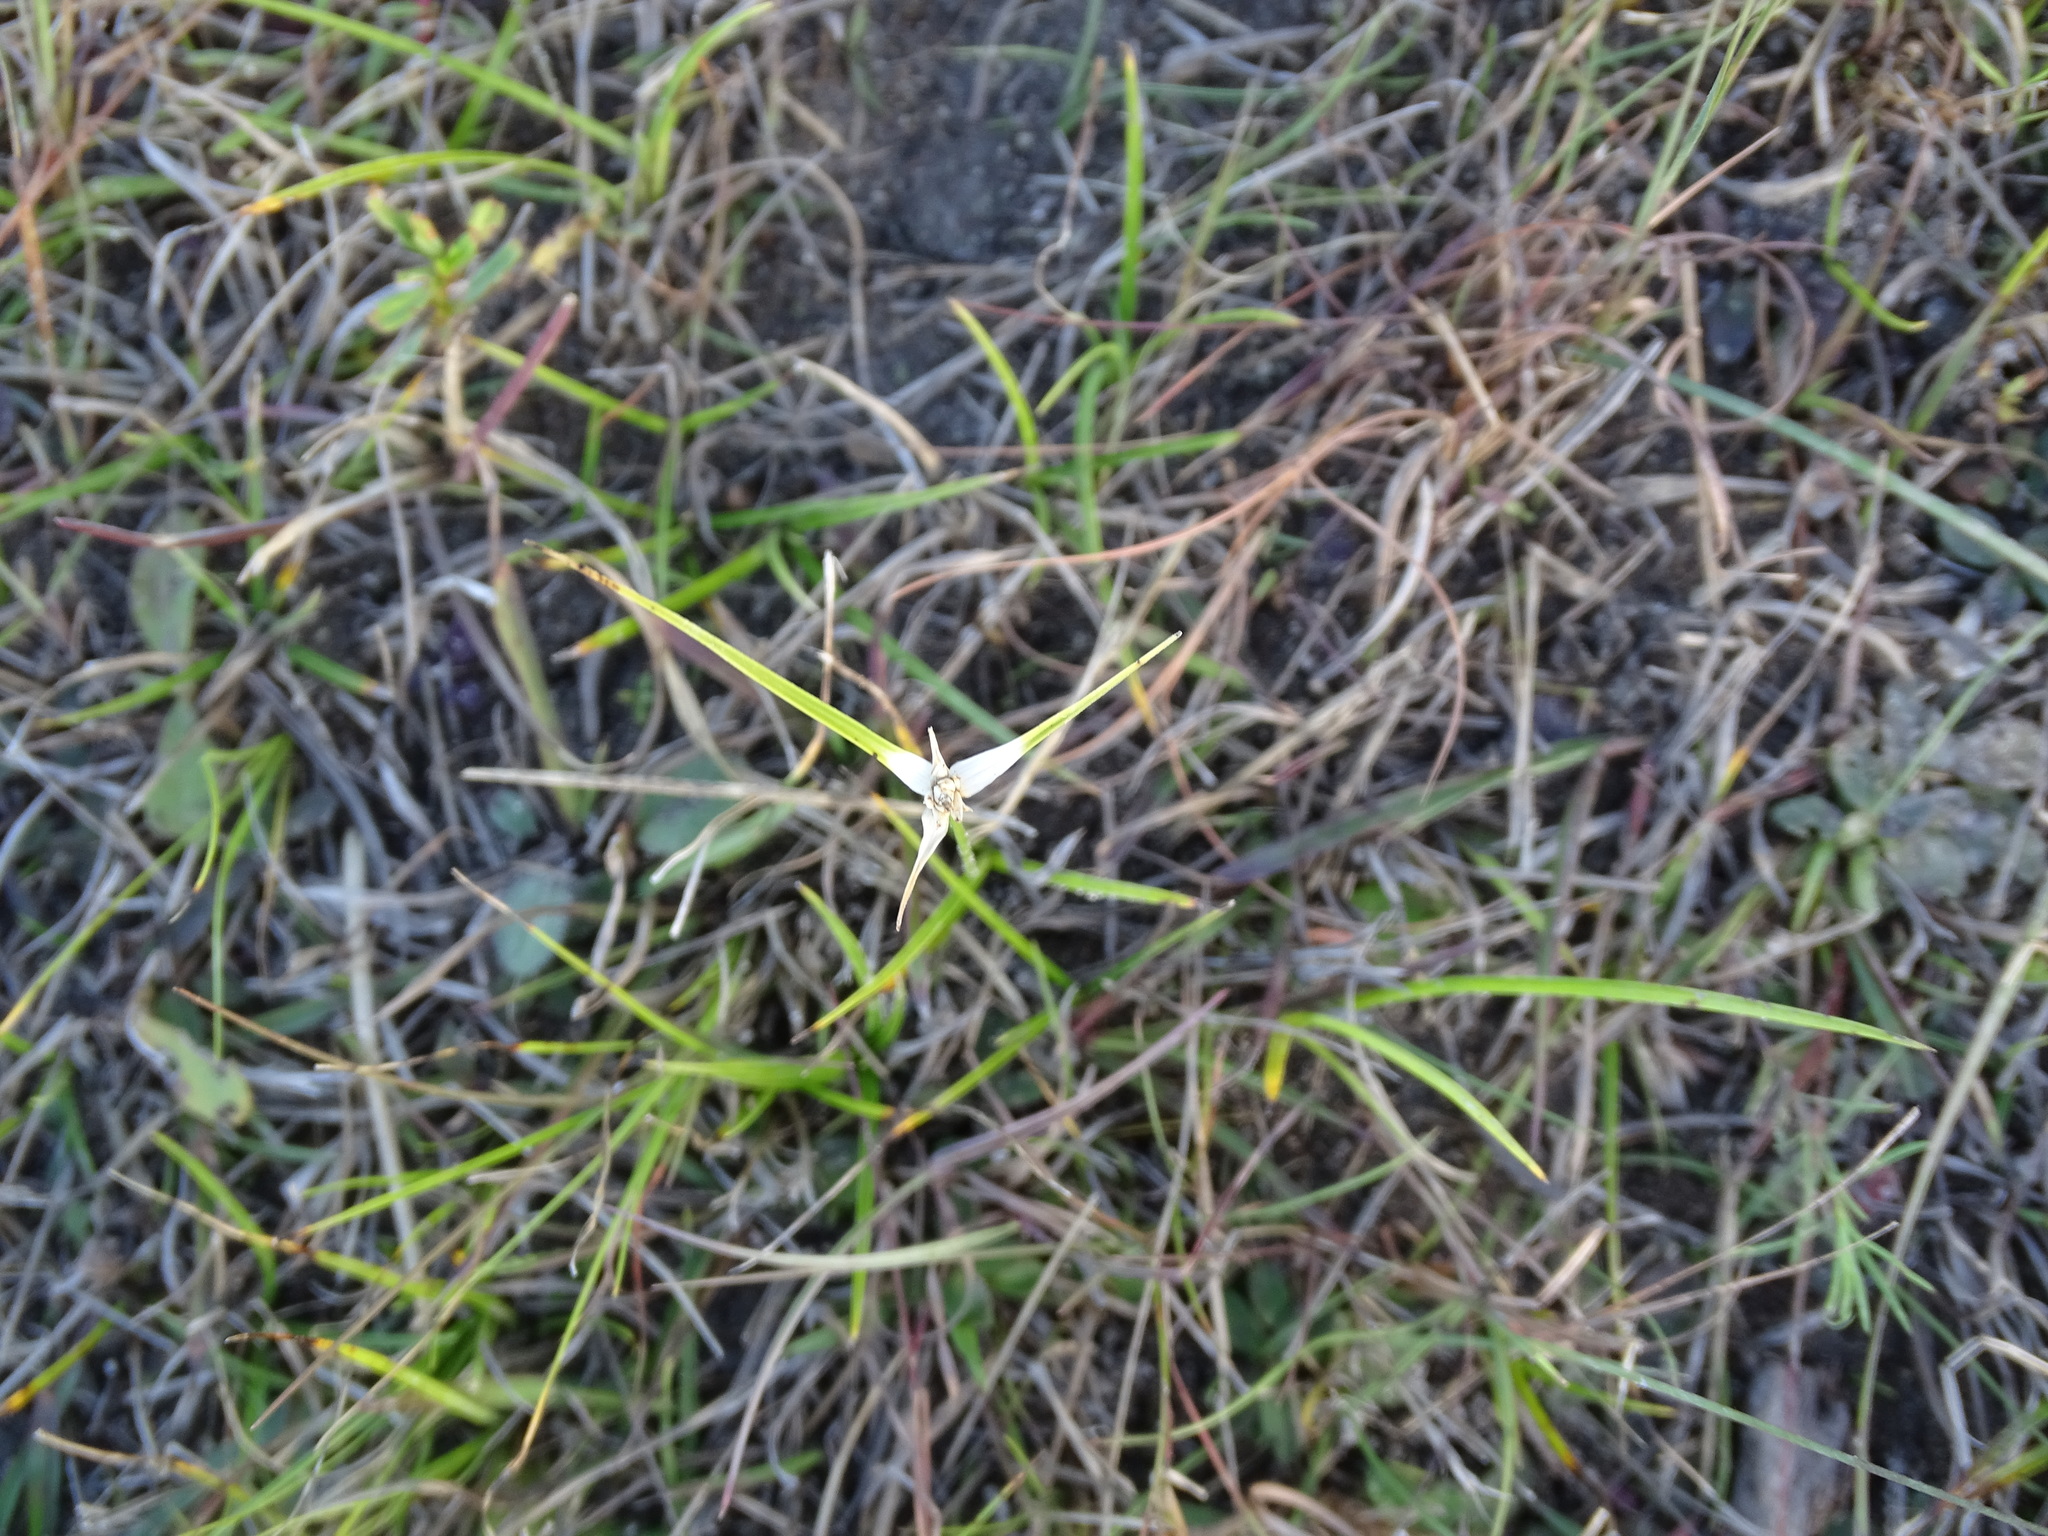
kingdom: Plantae
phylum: Tracheophyta
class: Liliopsida
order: Poales
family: Cyperaceae
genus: Rhynchospora
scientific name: Rhynchospora colorata
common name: Star sedge
